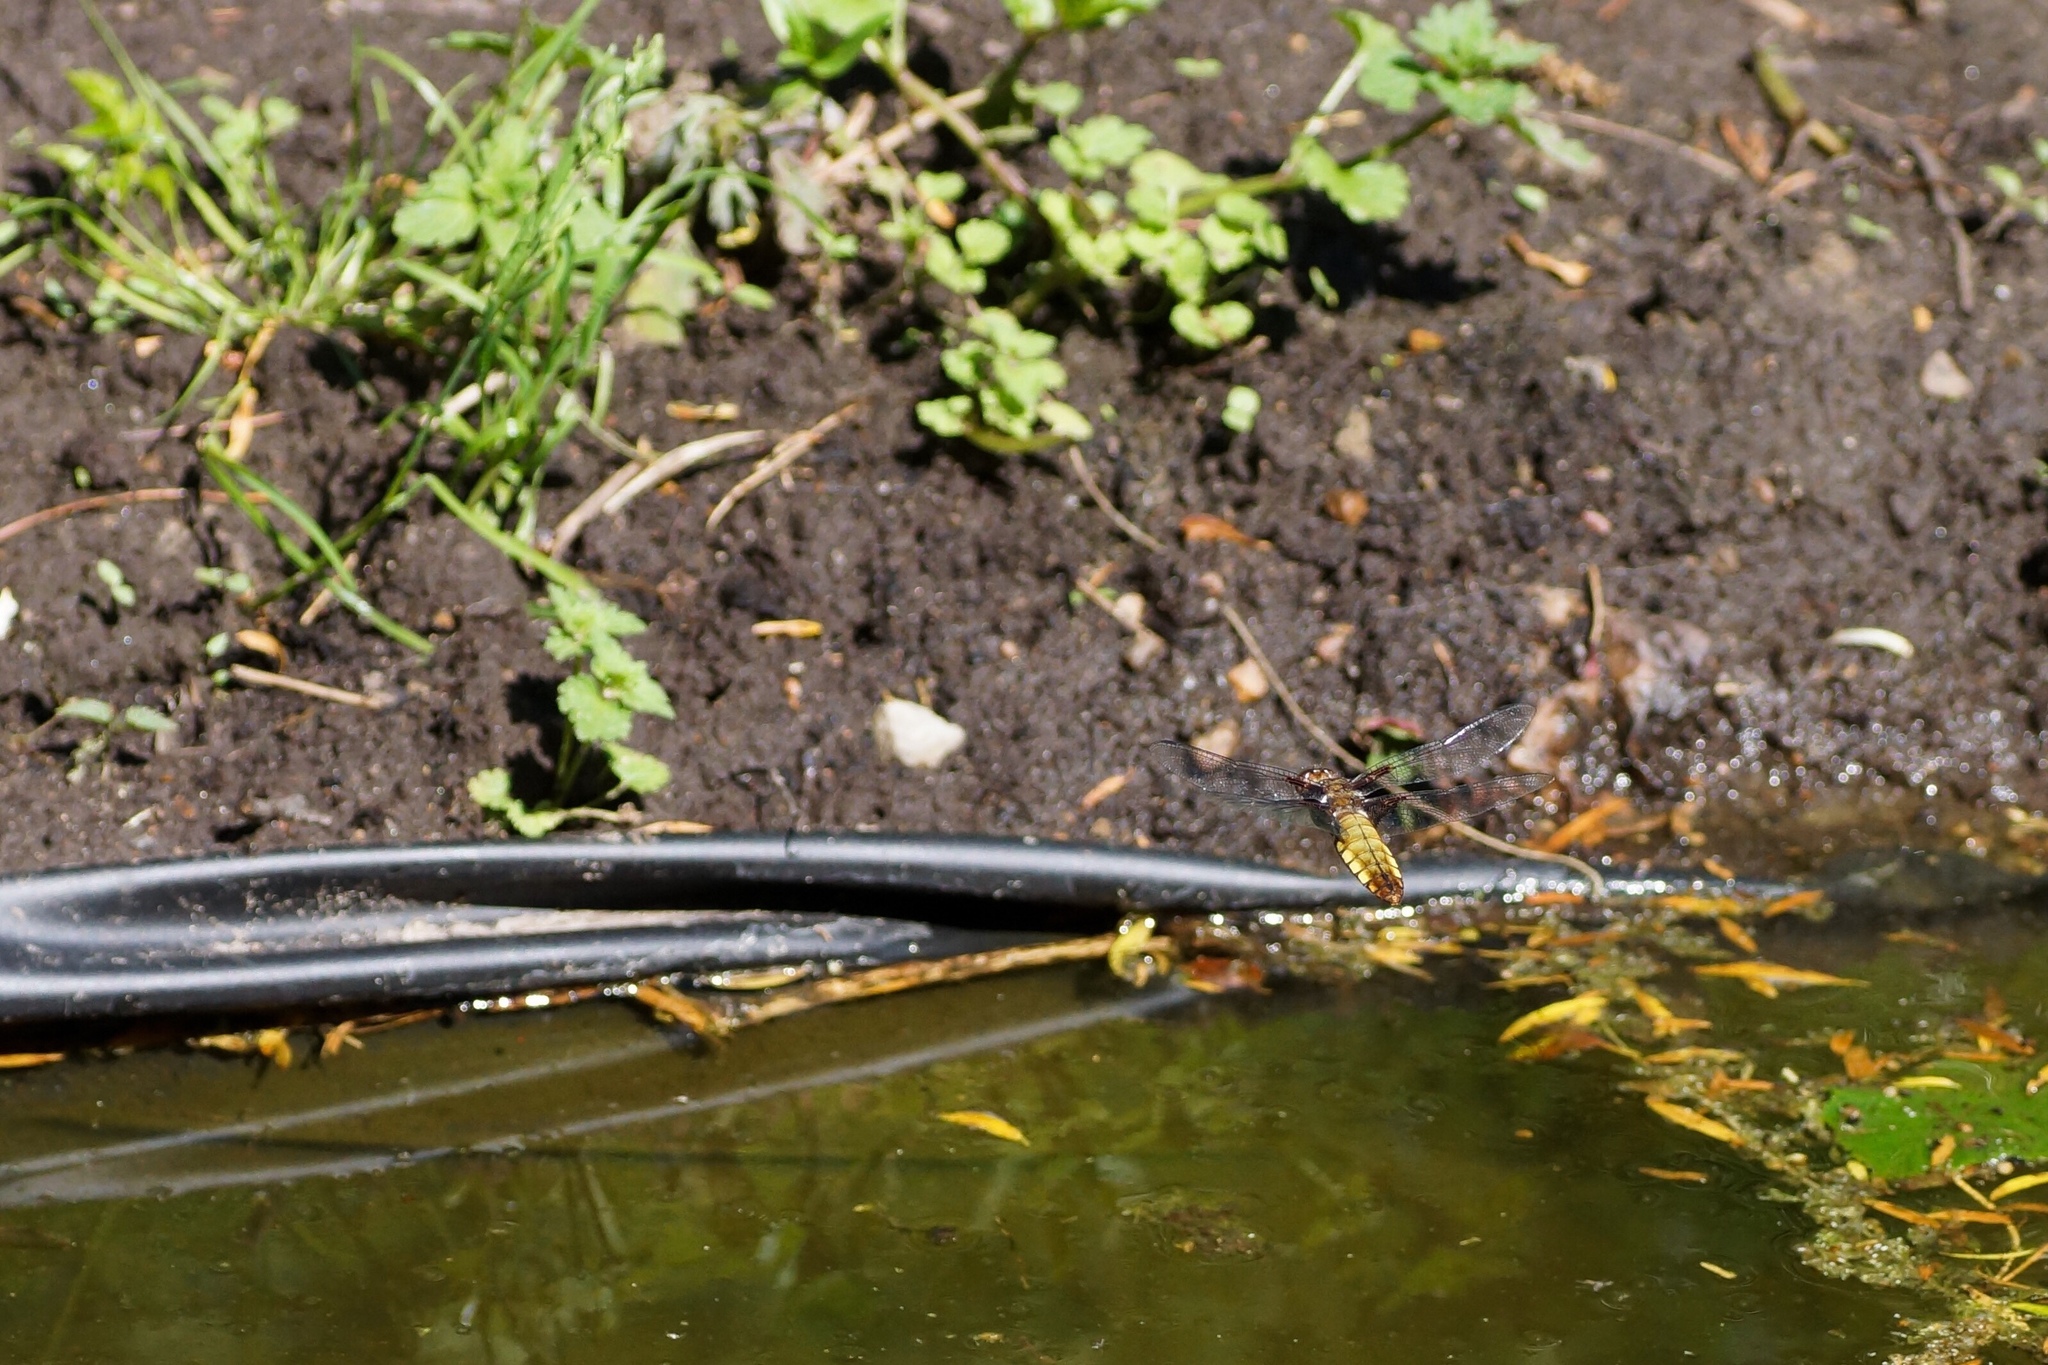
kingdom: Animalia
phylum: Arthropoda
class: Insecta
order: Odonata
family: Libellulidae
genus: Libellula
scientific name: Libellula depressa
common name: Broad-bodied chaser
